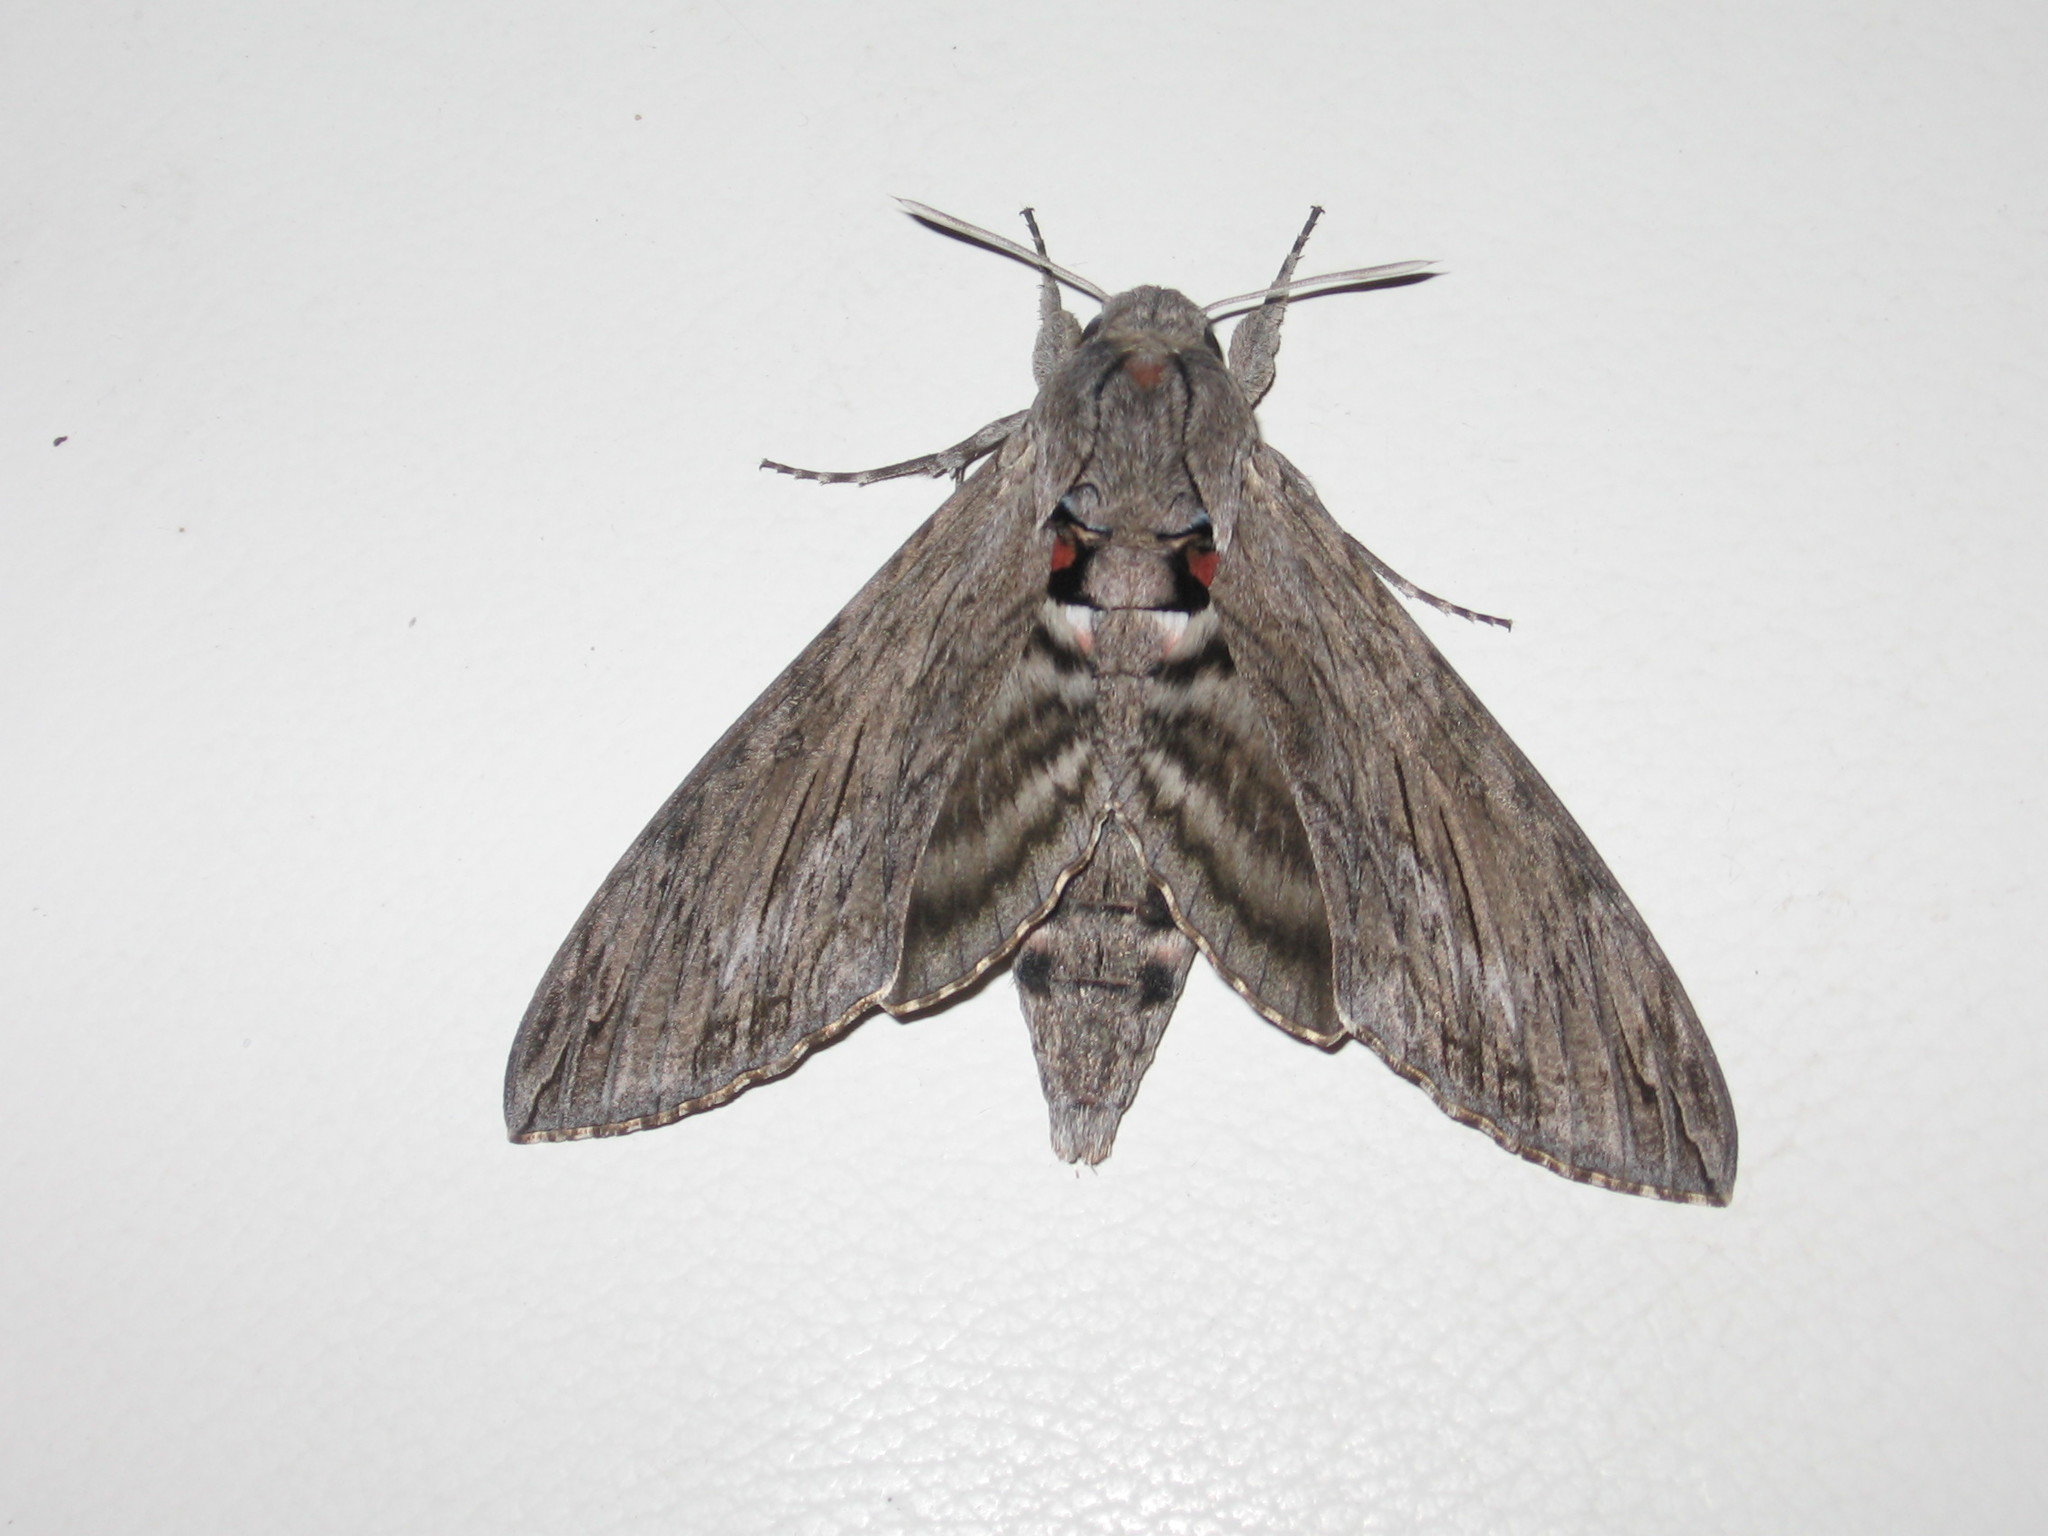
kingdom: Animalia
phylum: Arthropoda
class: Insecta
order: Lepidoptera
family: Sphingidae
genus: Agrius
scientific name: Agrius convolvuli
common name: Convolvulus hawkmoth
